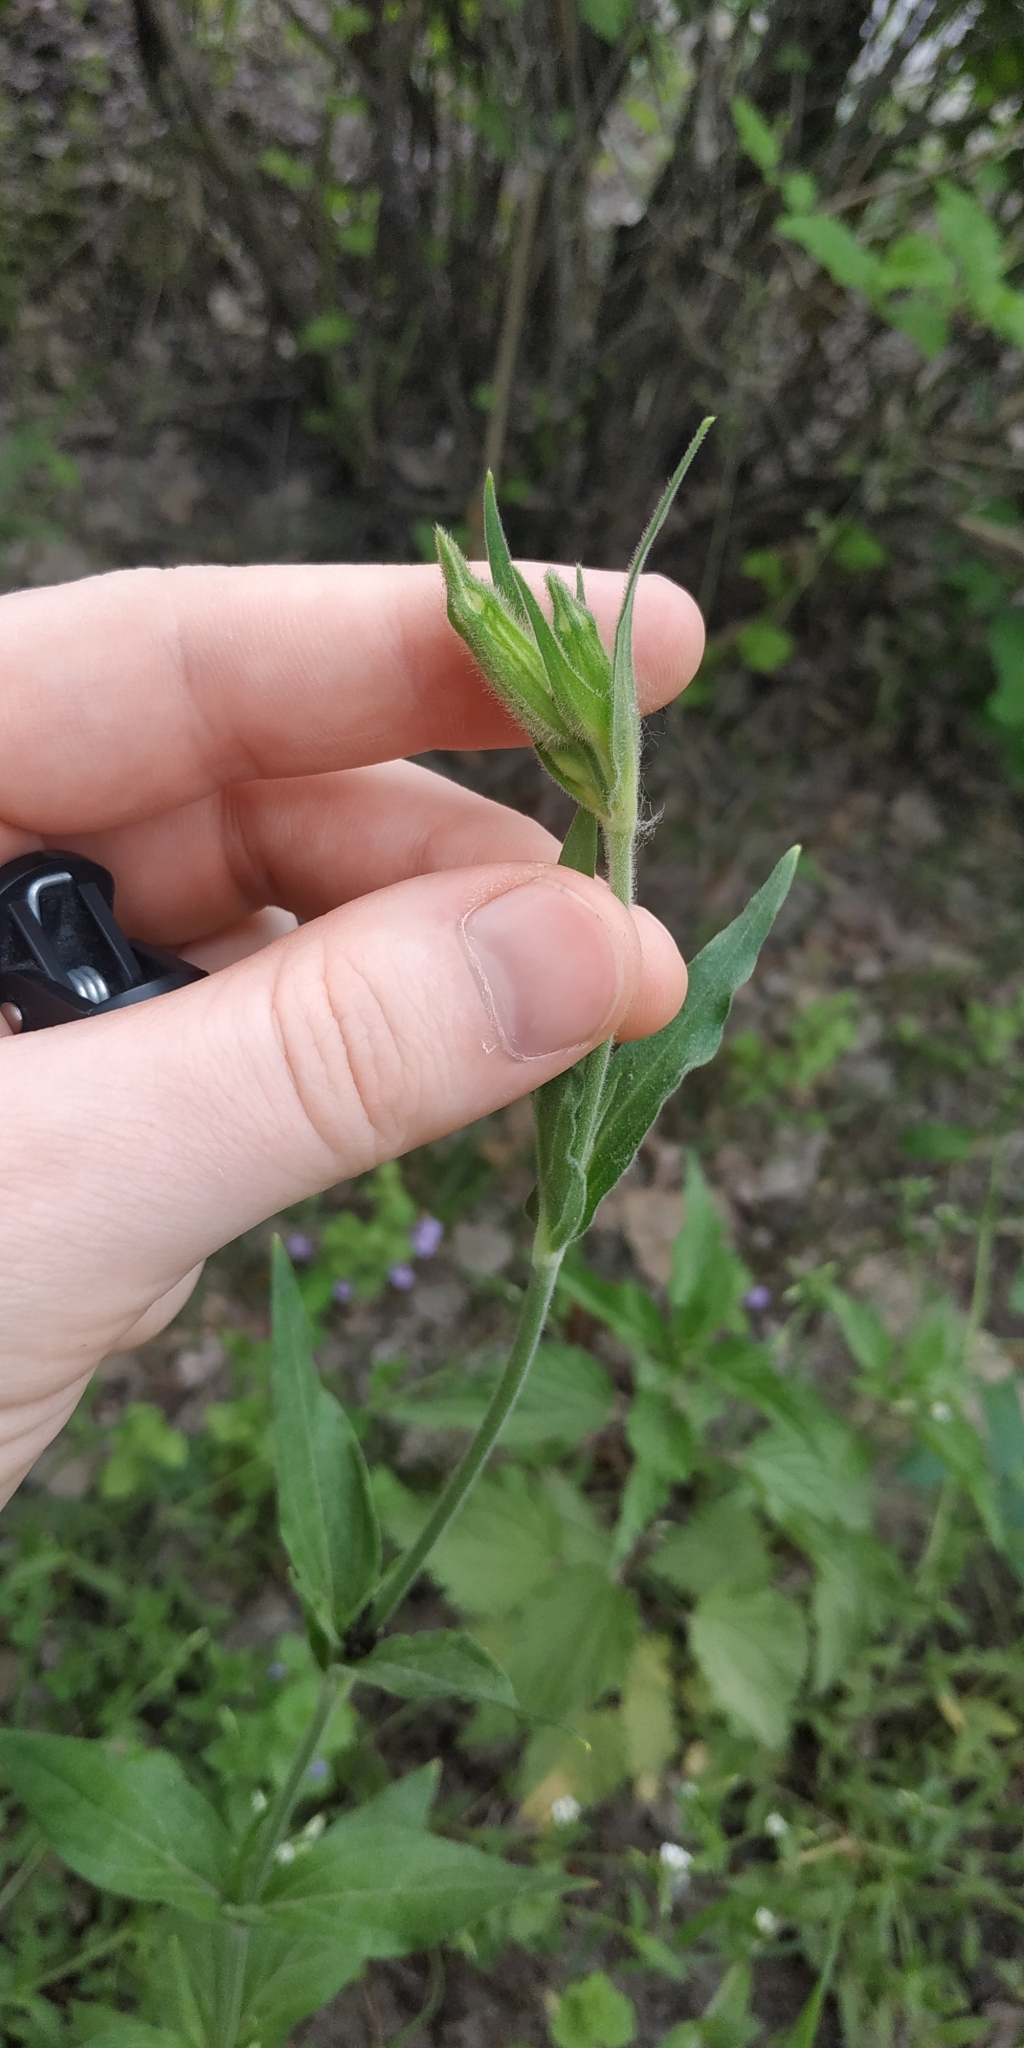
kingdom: Plantae
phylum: Tracheophyta
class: Magnoliopsida
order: Caryophyllales
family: Caryophyllaceae
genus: Silene
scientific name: Silene latifolia
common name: White campion
